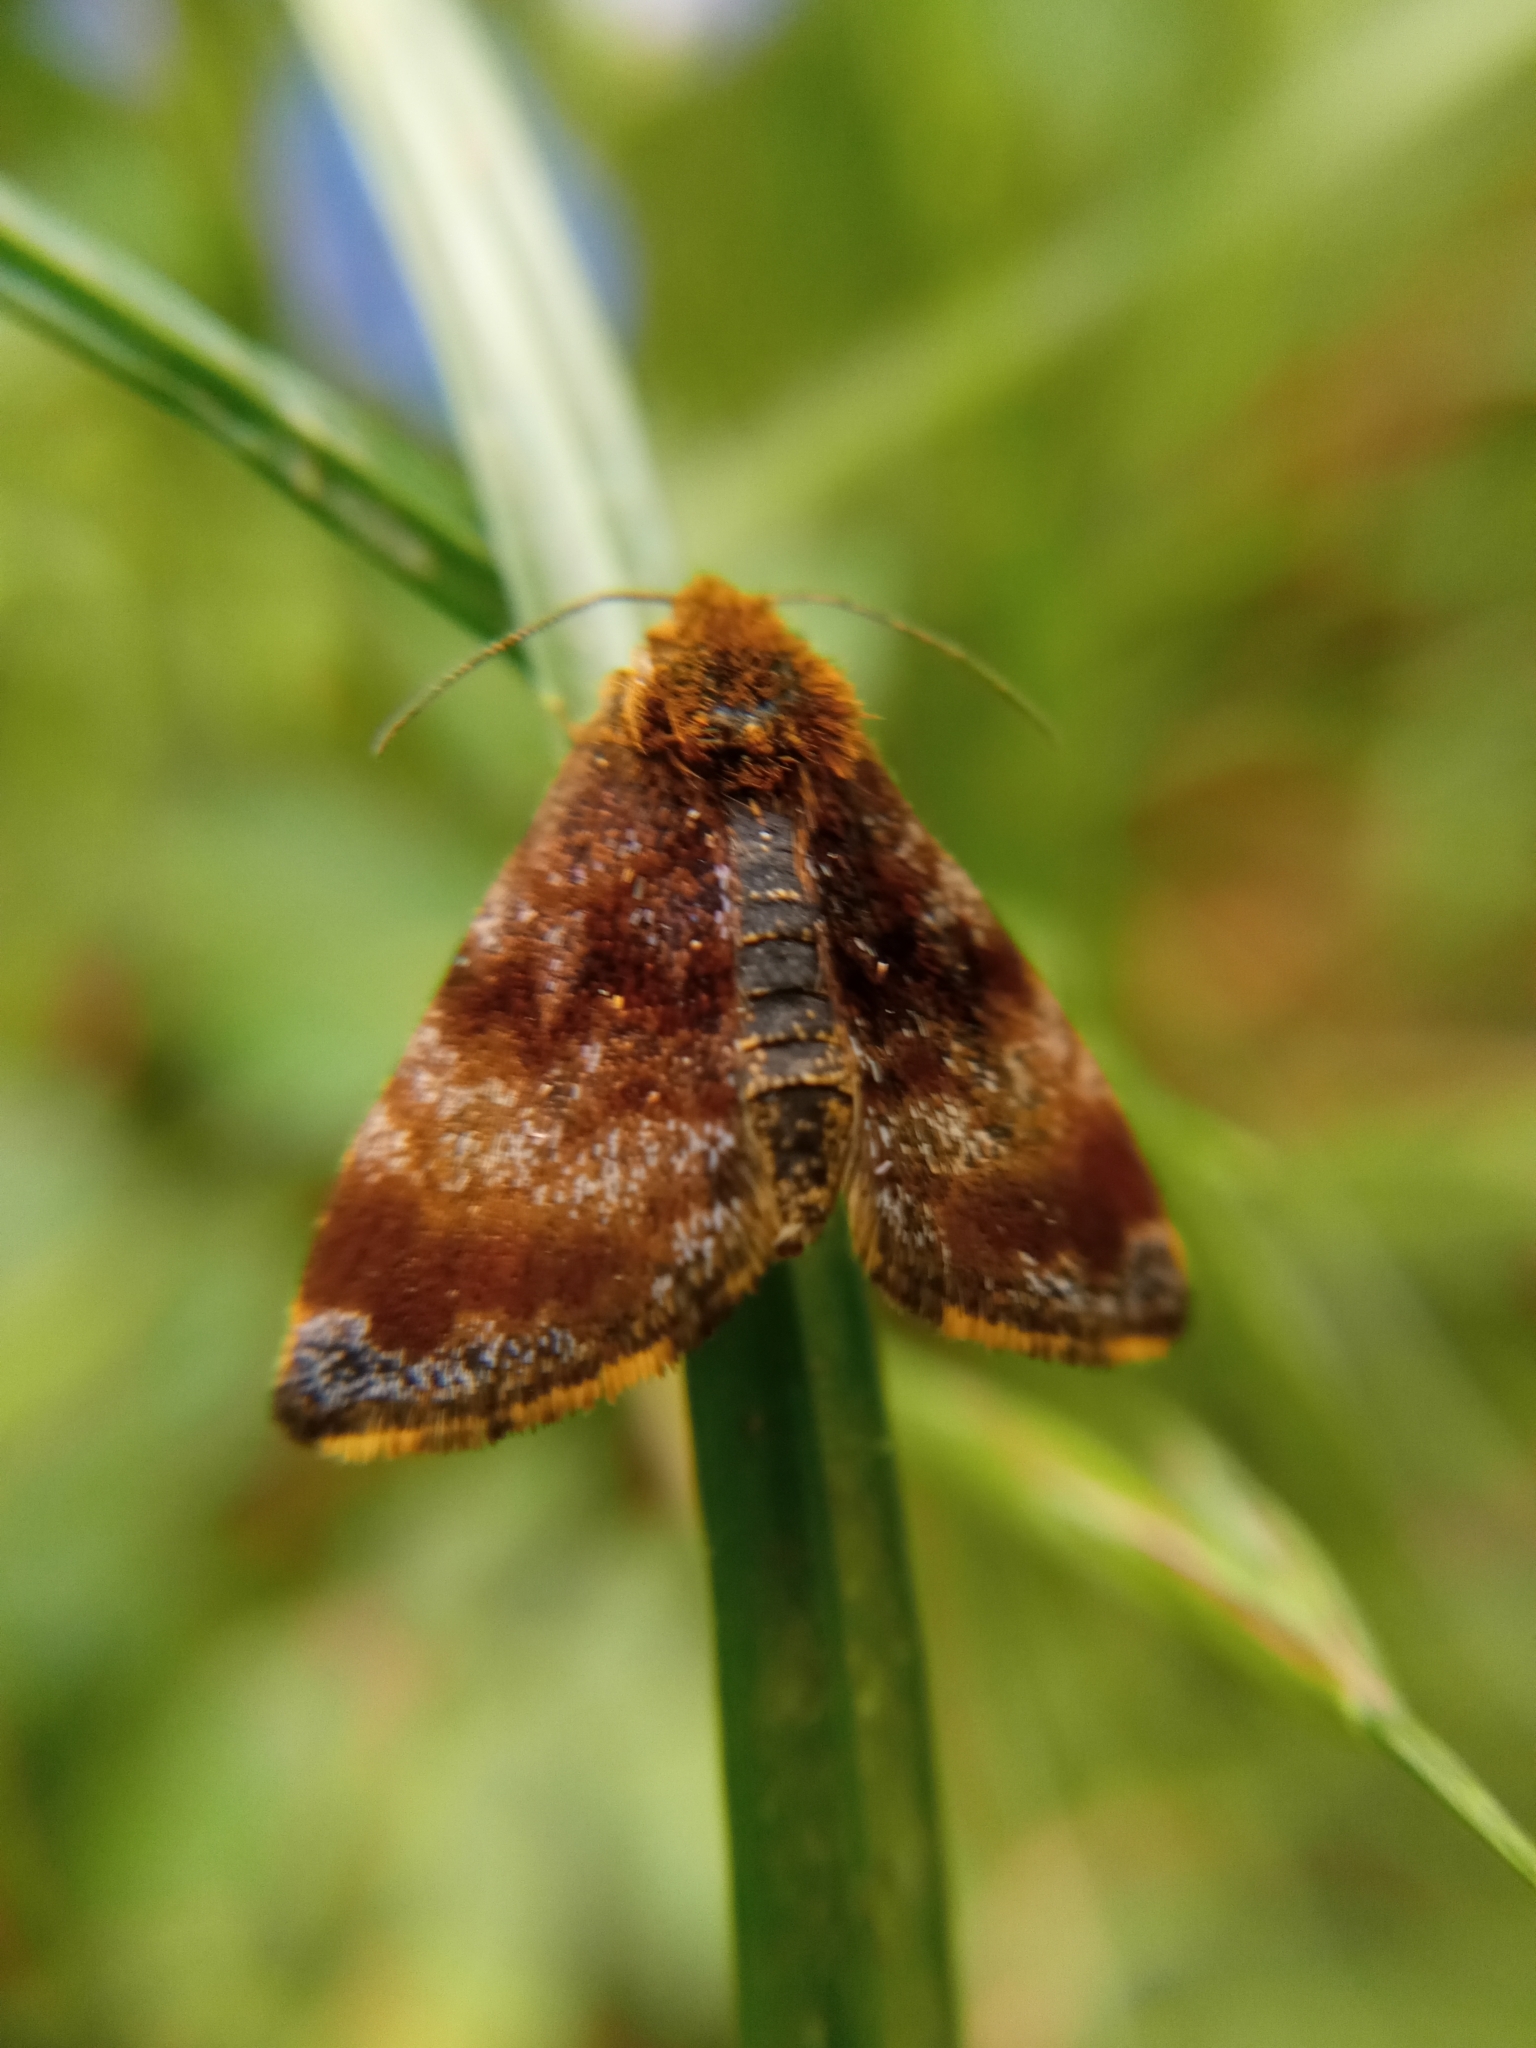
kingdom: Animalia
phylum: Arthropoda
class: Insecta
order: Lepidoptera
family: Noctuidae
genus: Panemeria
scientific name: Panemeria tenebrata
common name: Small yellow underwing
